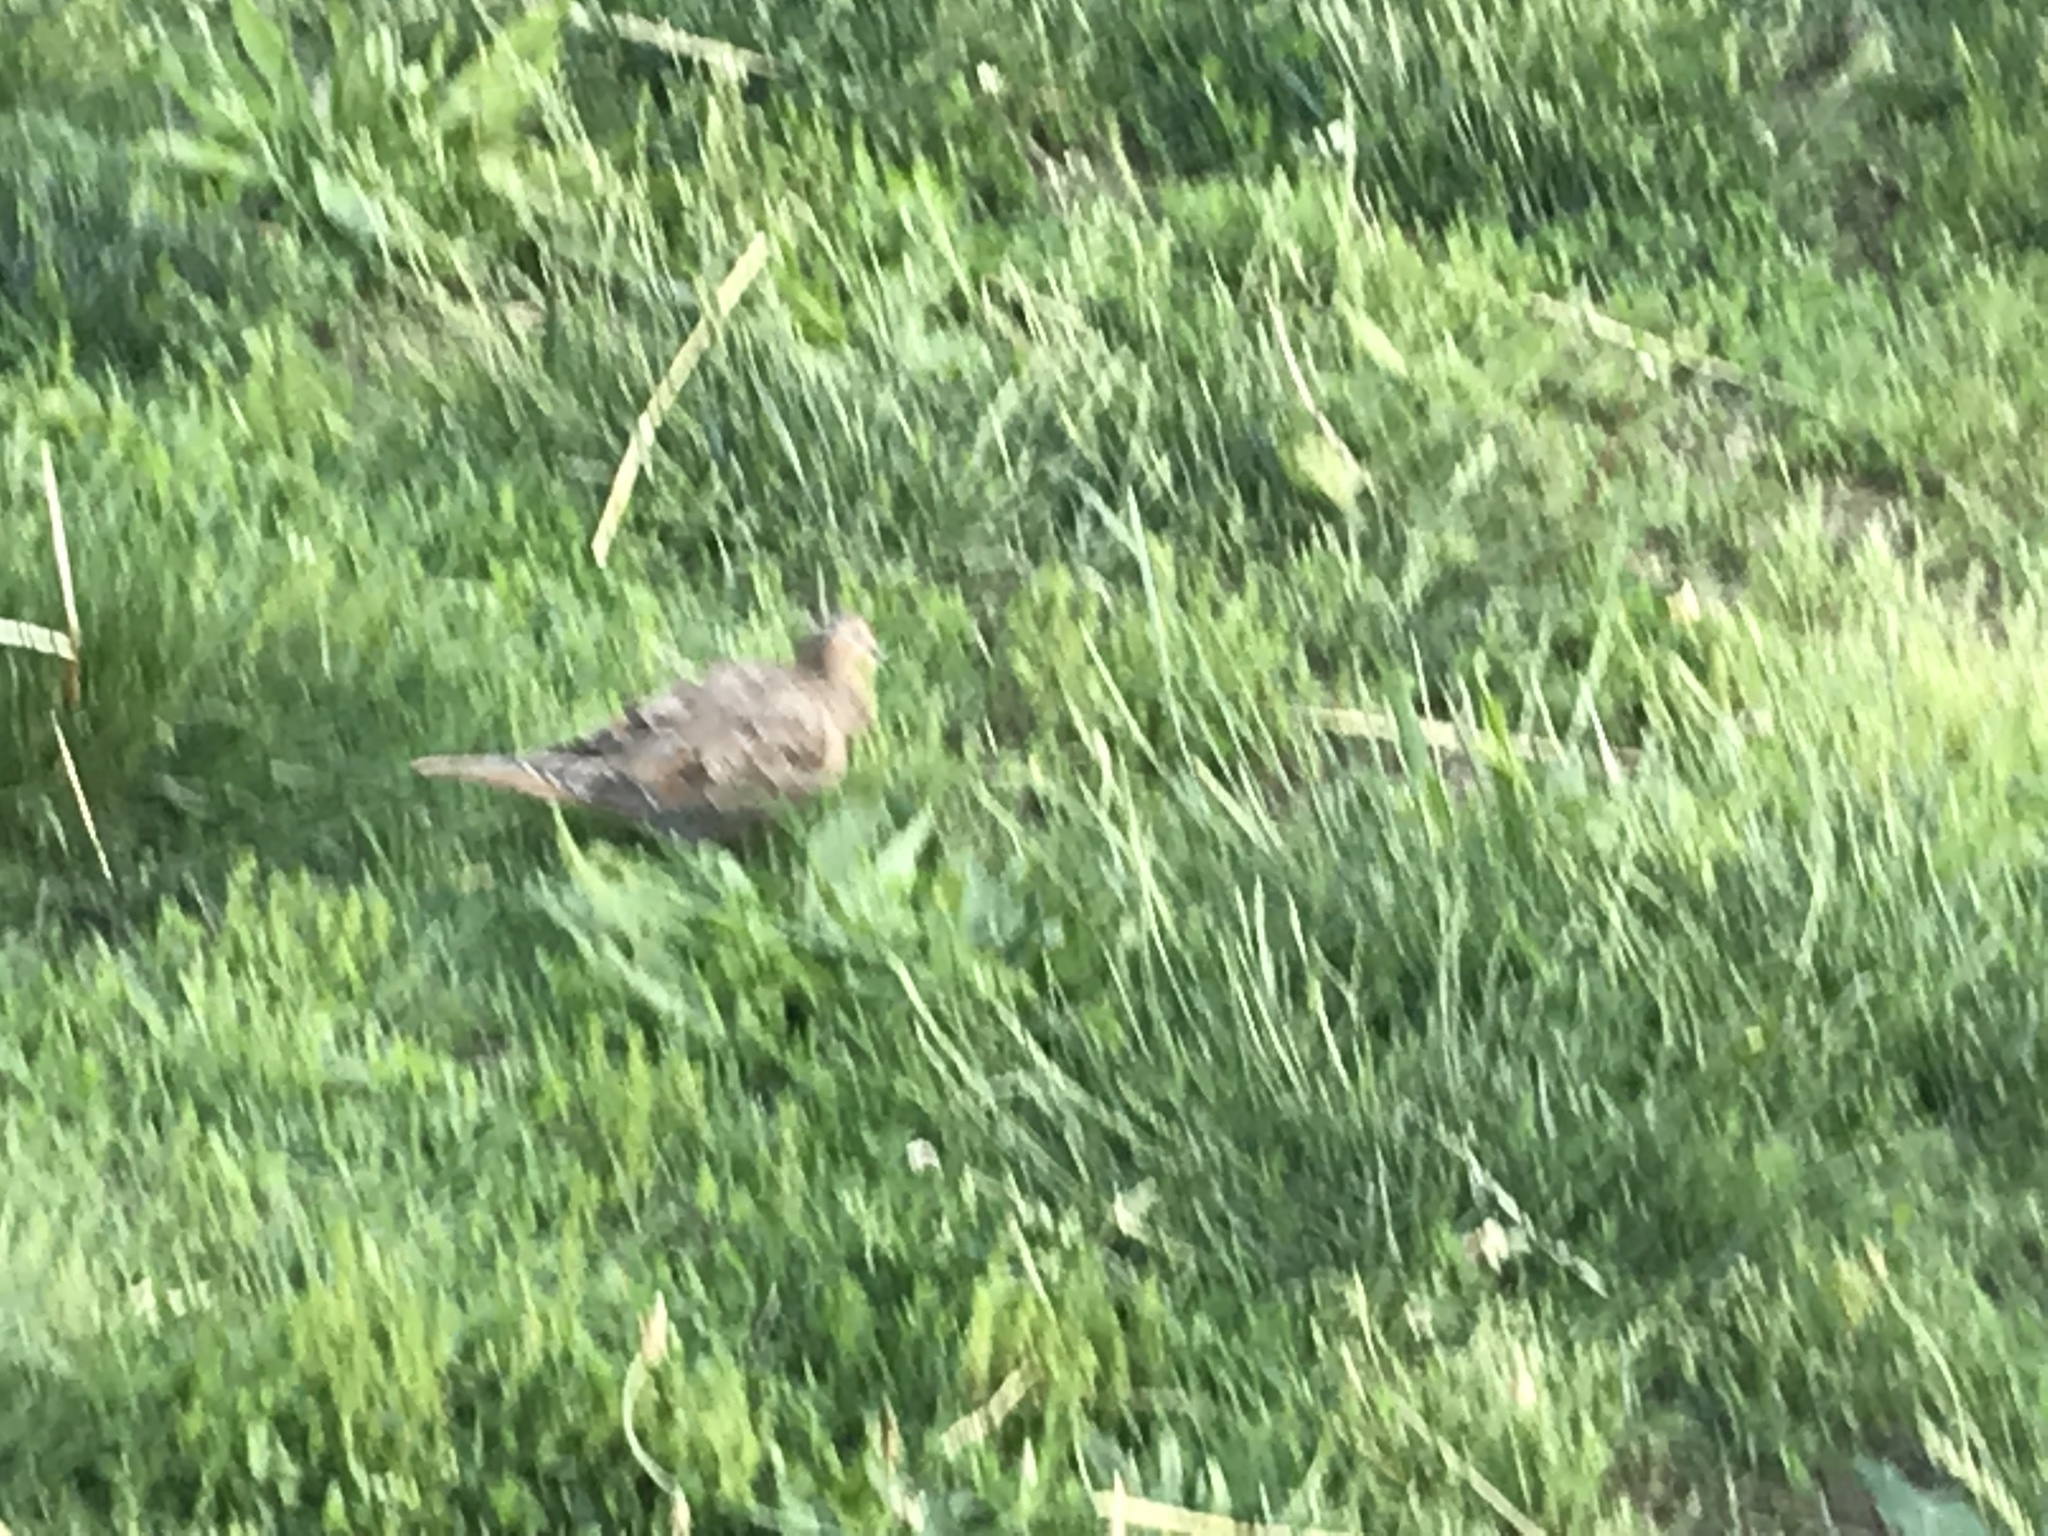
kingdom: Animalia
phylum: Chordata
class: Aves
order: Columbiformes
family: Columbidae
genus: Zenaida
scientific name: Zenaida macroura
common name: Mourning dove
